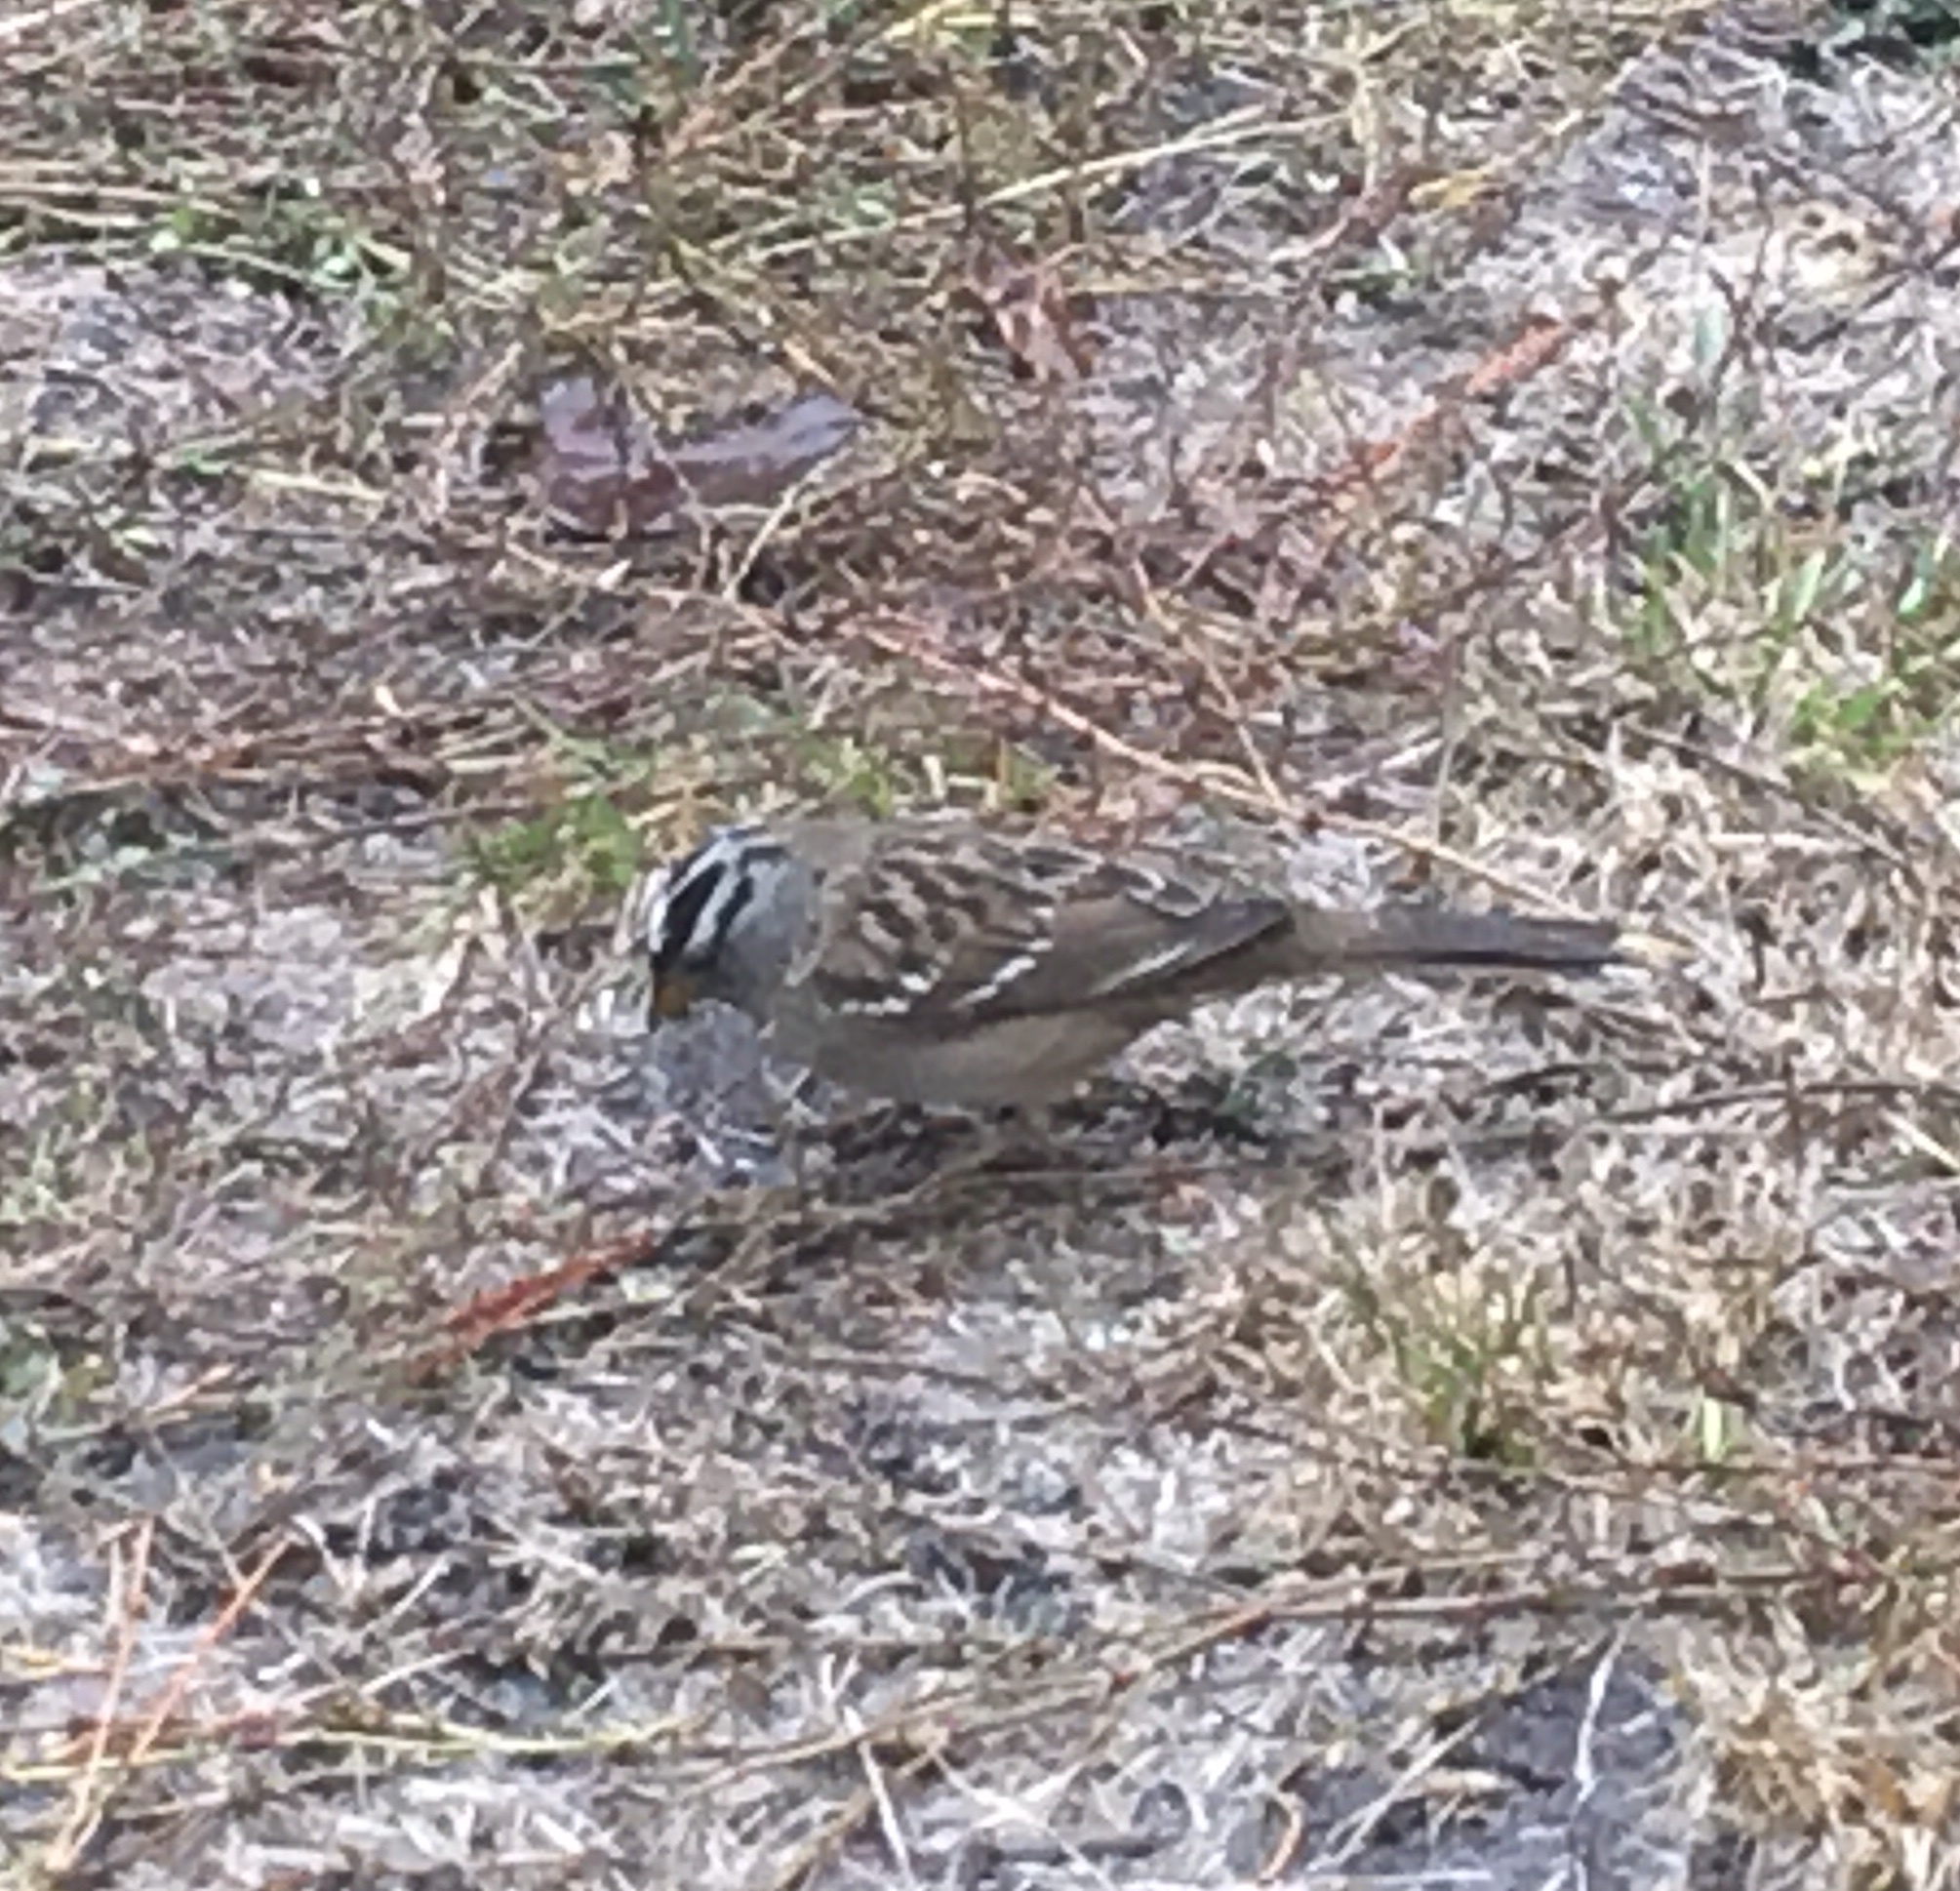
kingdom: Animalia
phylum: Chordata
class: Aves
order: Passeriformes
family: Passerellidae
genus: Zonotrichia
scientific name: Zonotrichia leucophrys
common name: White-crowned sparrow
